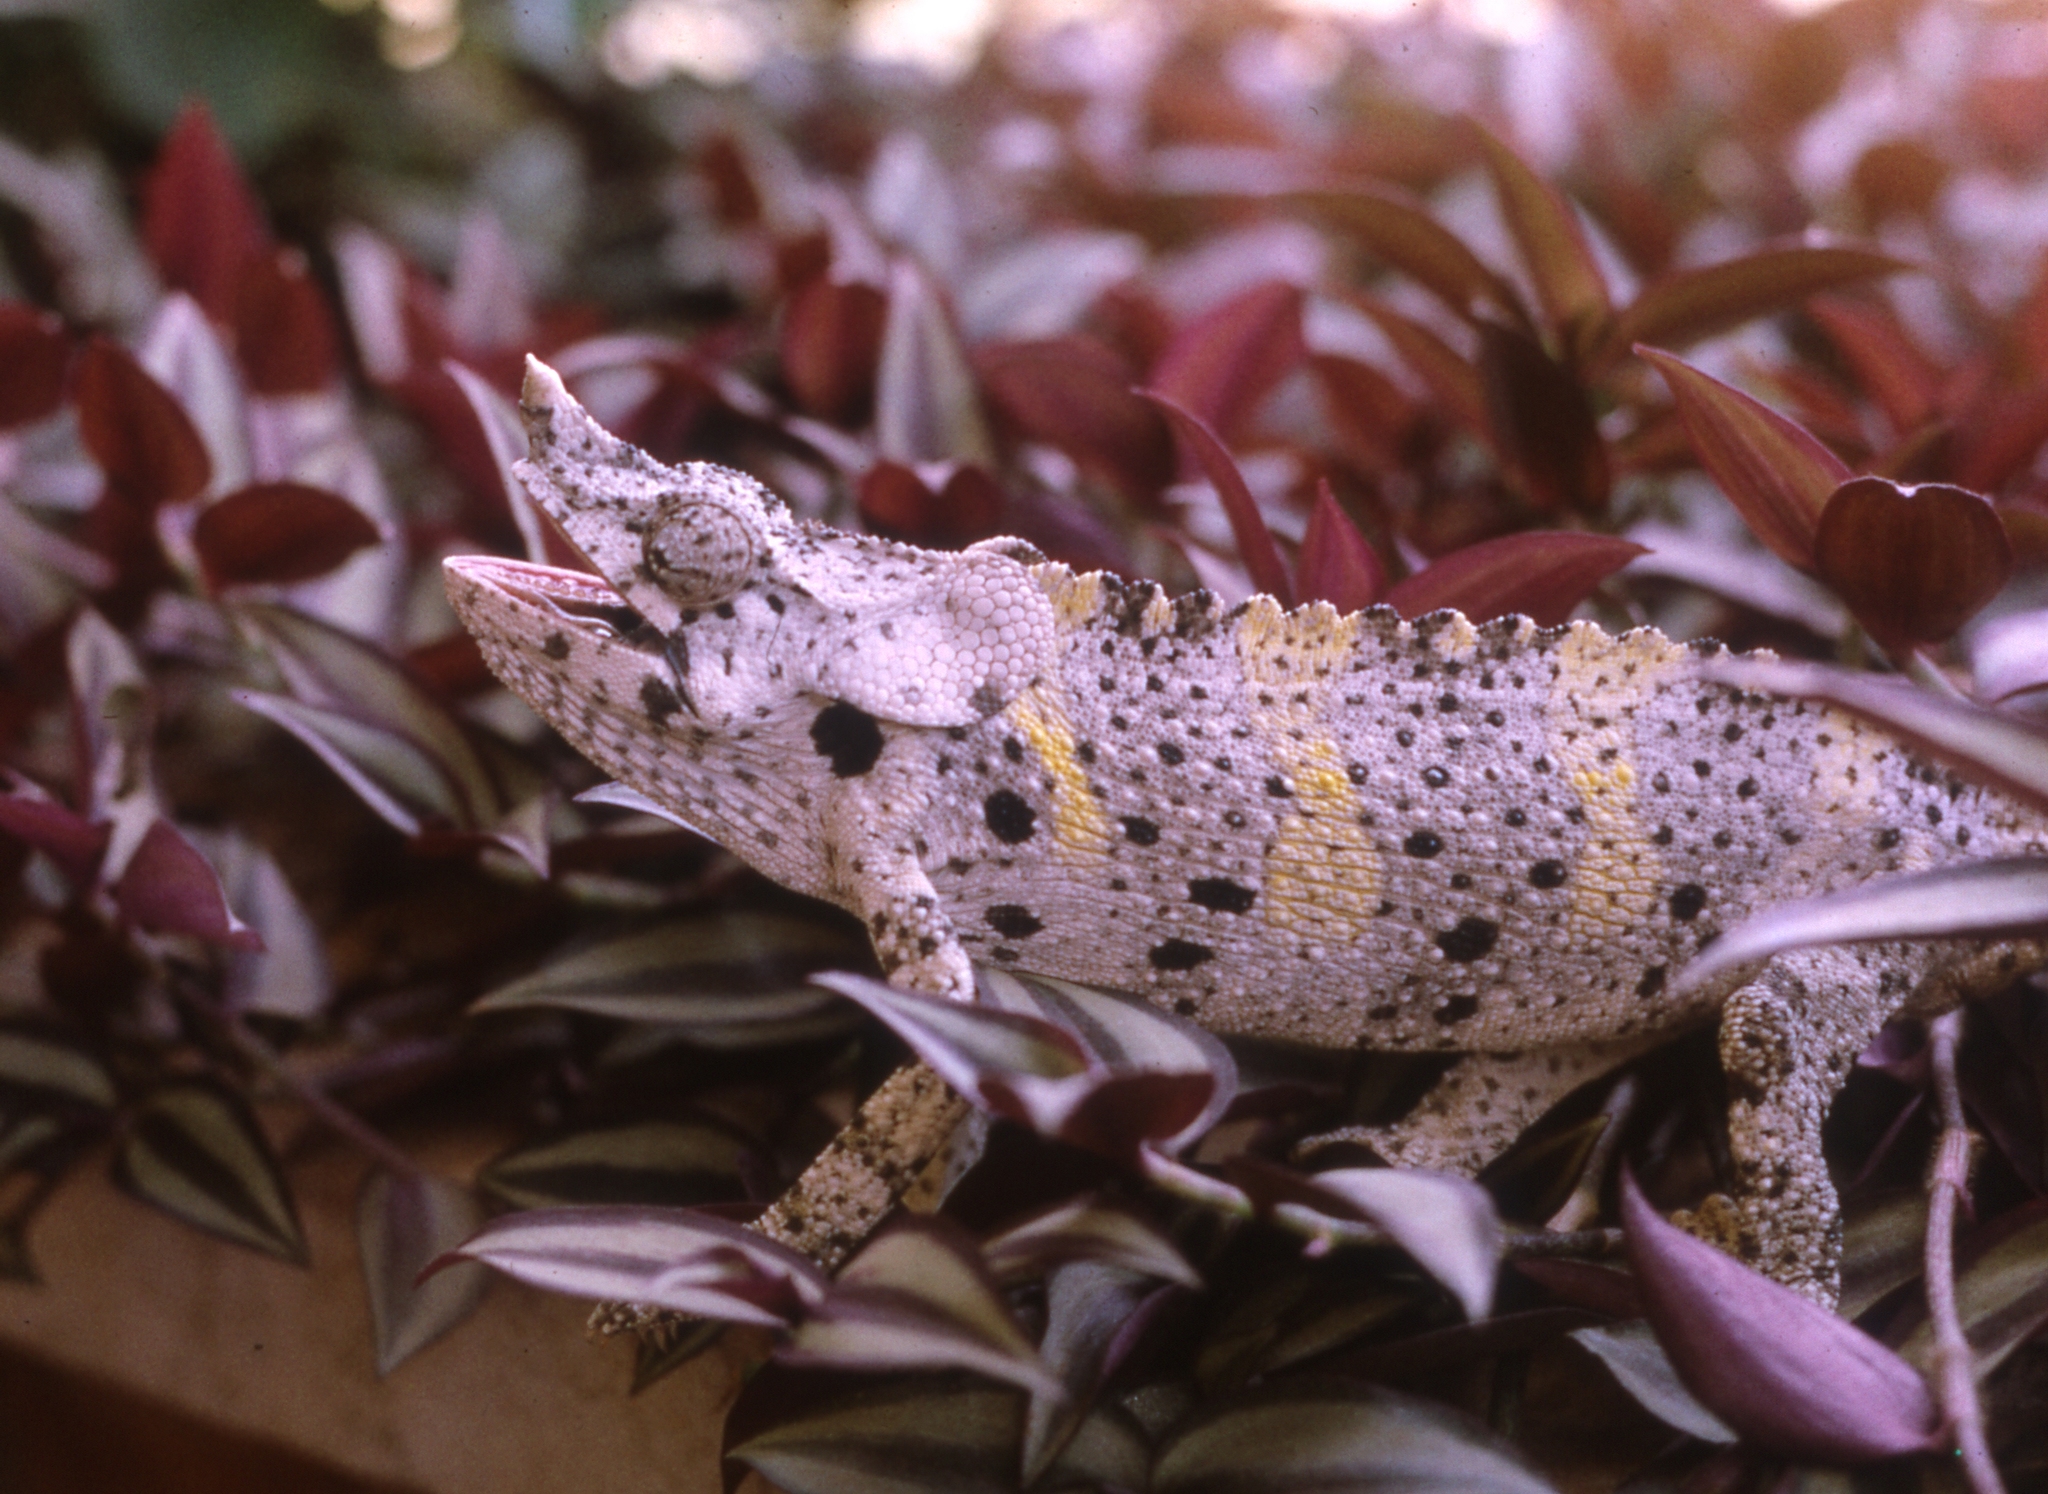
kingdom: Animalia
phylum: Chordata
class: Squamata
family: Chamaeleonidae
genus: Trioceros
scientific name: Trioceros melleri
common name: Meller's chameleon
